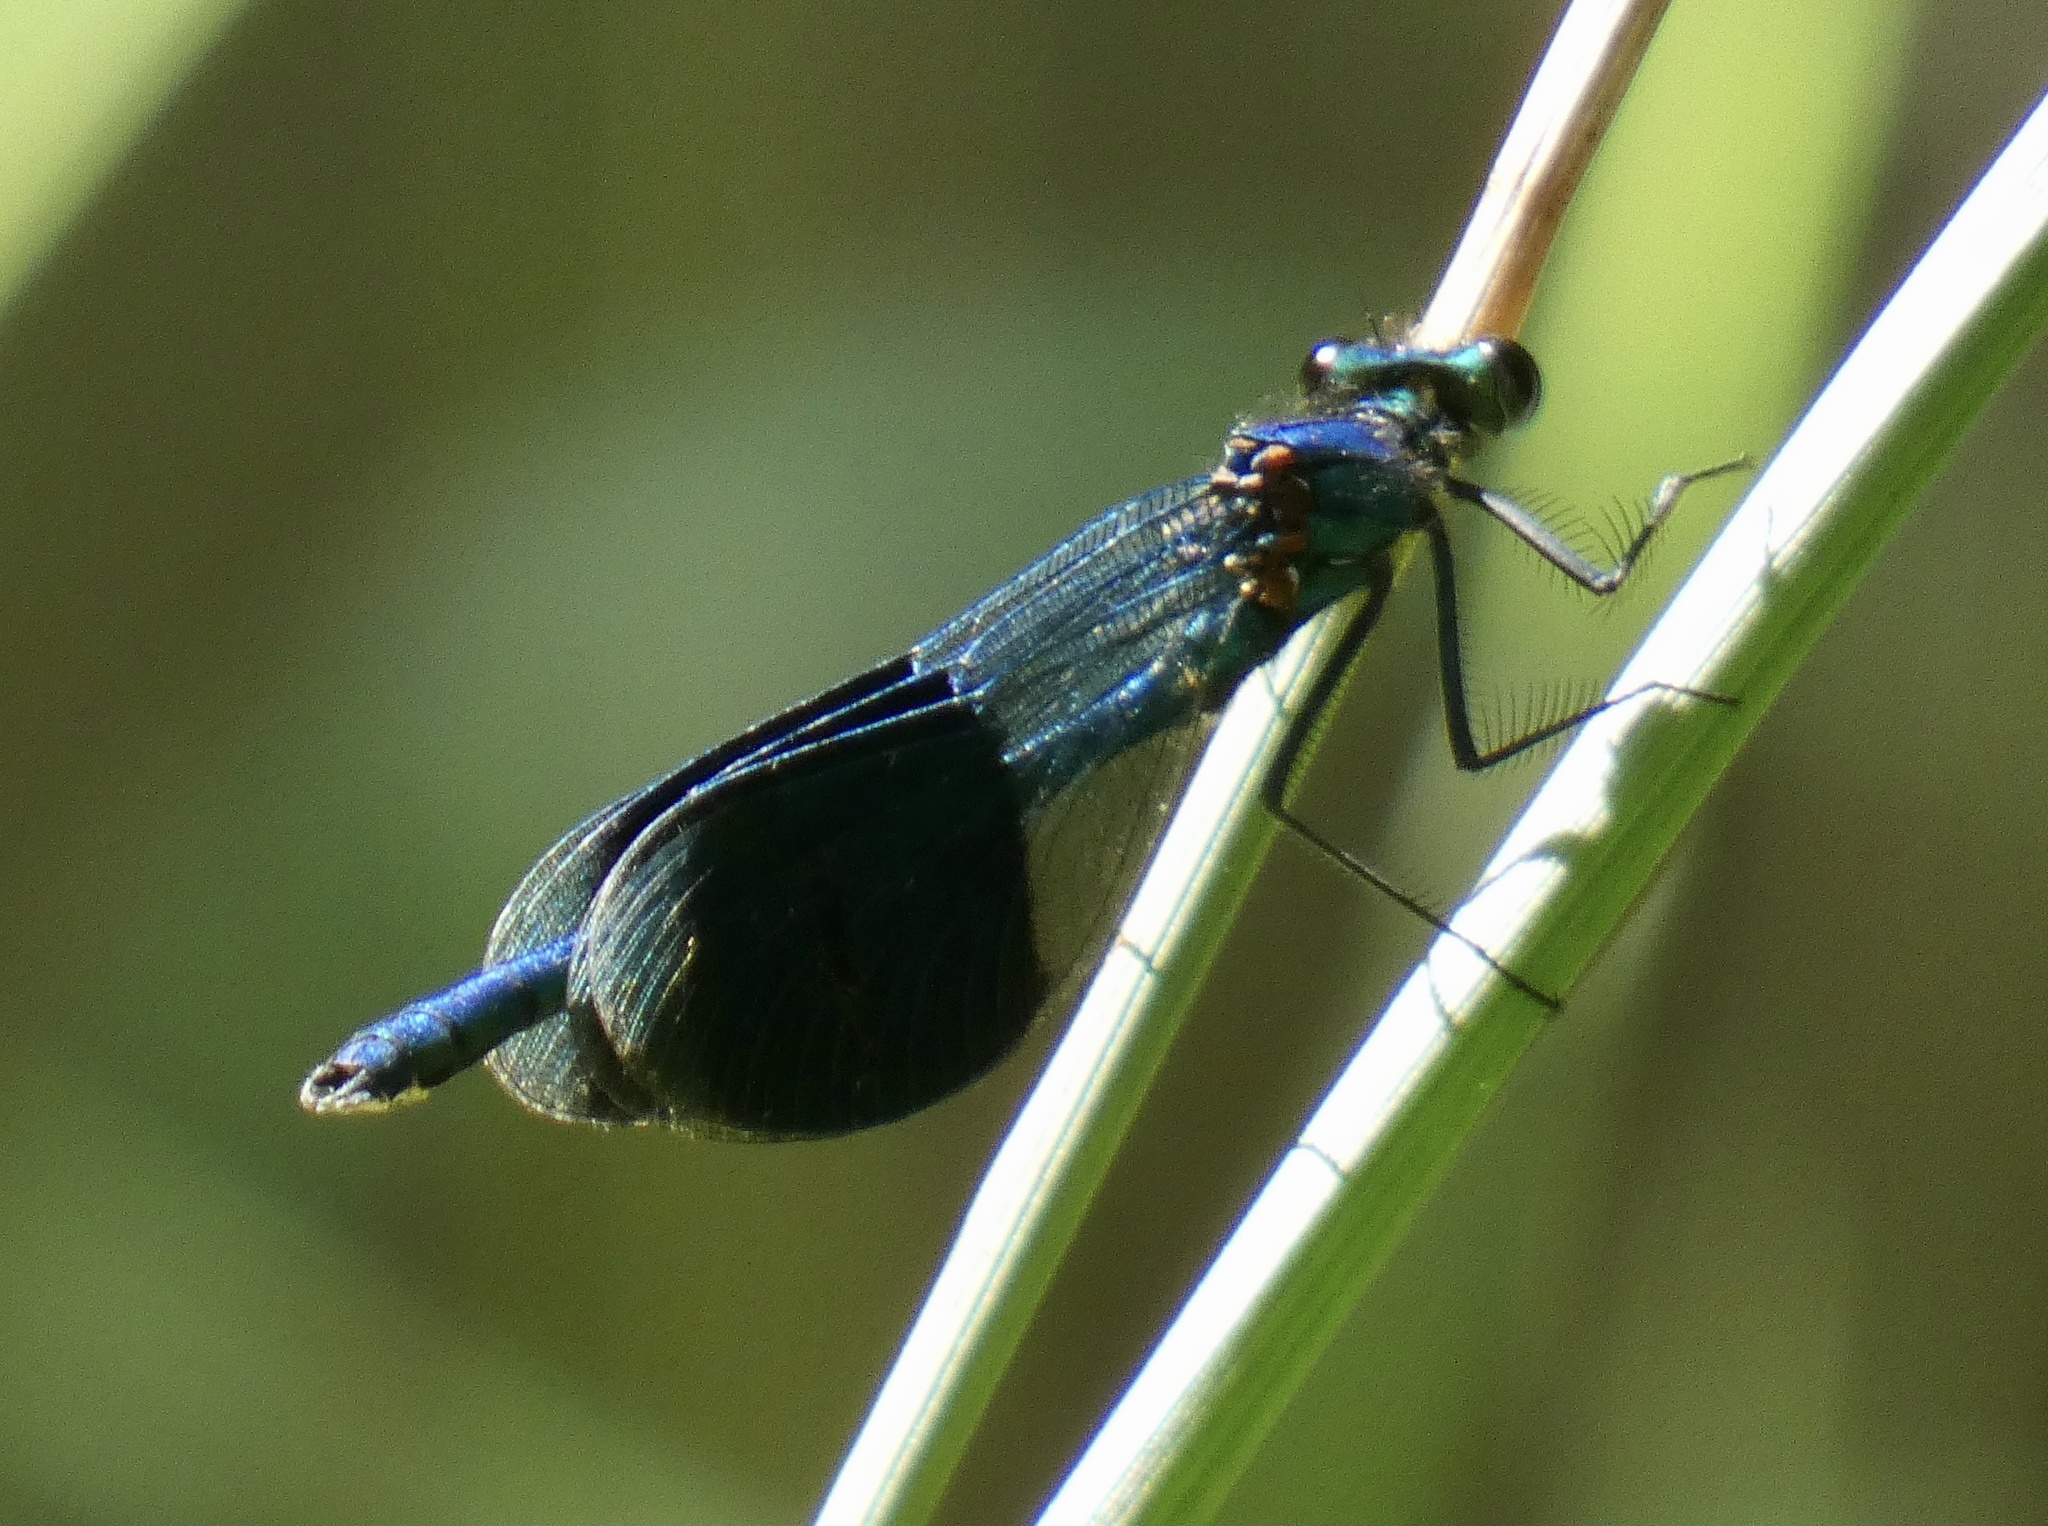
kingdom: Animalia
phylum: Arthropoda
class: Insecta
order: Odonata
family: Calopterygidae
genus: Calopteryx
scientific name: Calopteryx splendens
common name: Banded demoiselle
